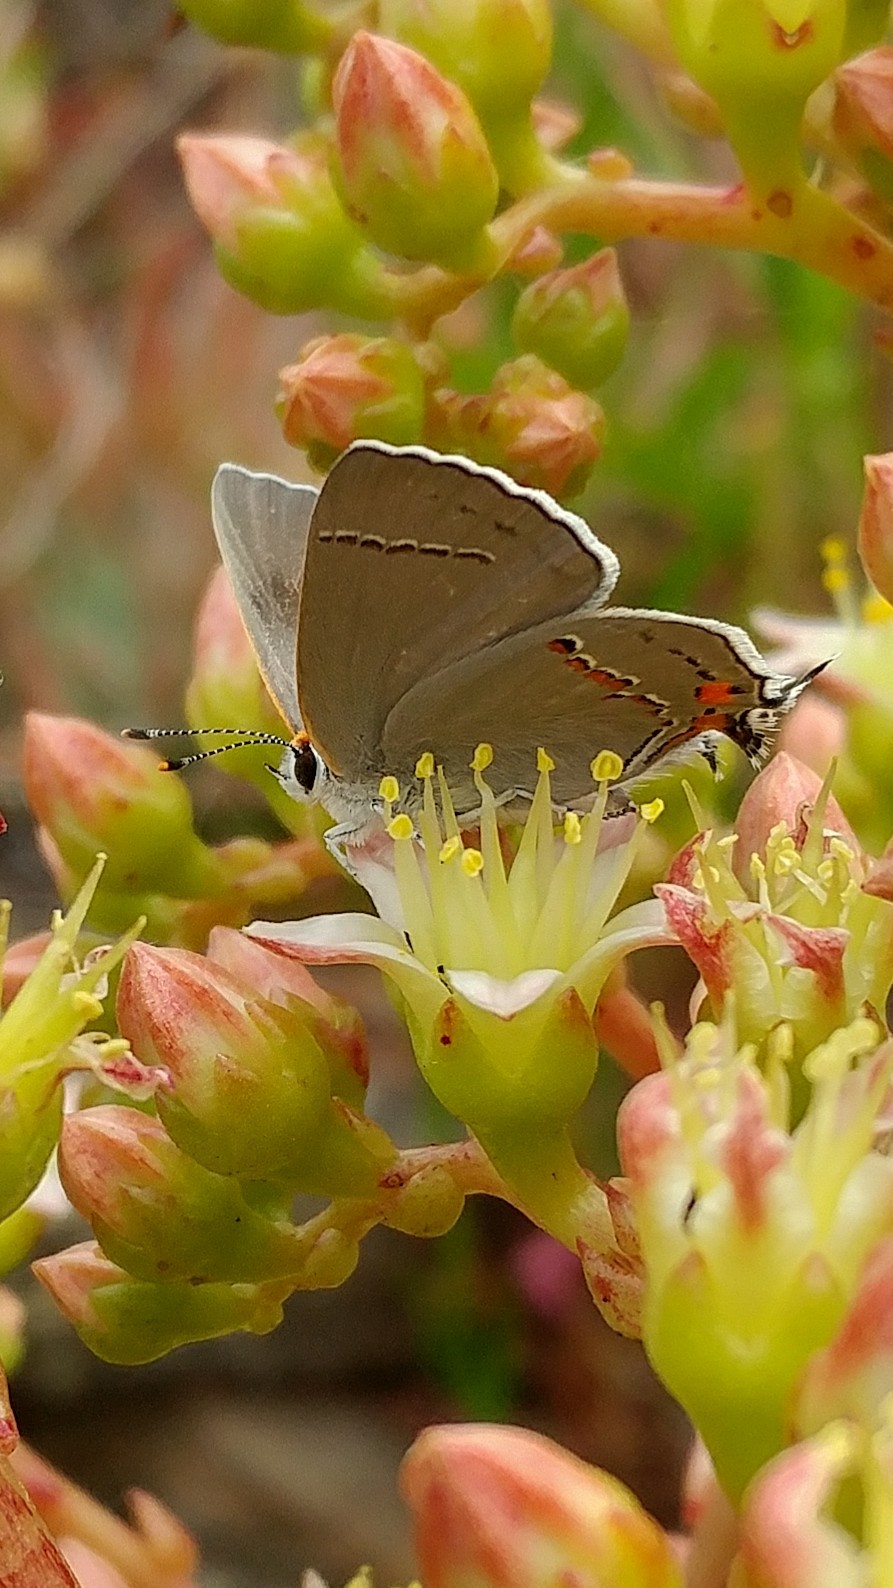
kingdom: Animalia
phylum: Arthropoda
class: Insecta
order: Lepidoptera
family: Lycaenidae
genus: Strymon
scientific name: Strymon melinus
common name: Gray hairstreak
